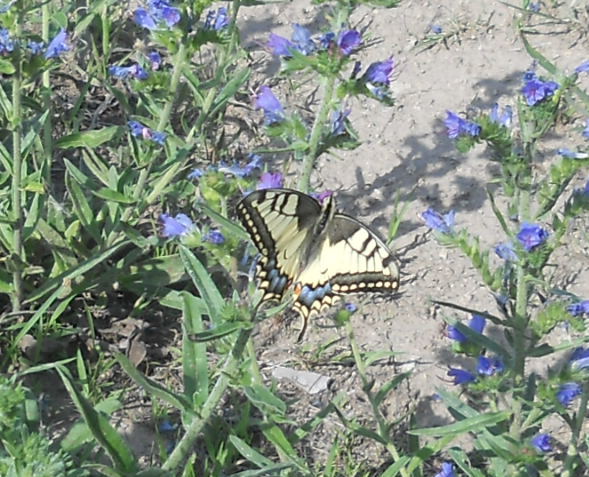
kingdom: Animalia
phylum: Arthropoda
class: Insecta
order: Lepidoptera
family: Papilionidae
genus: Papilio
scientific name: Papilio machaon
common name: Swallowtail
